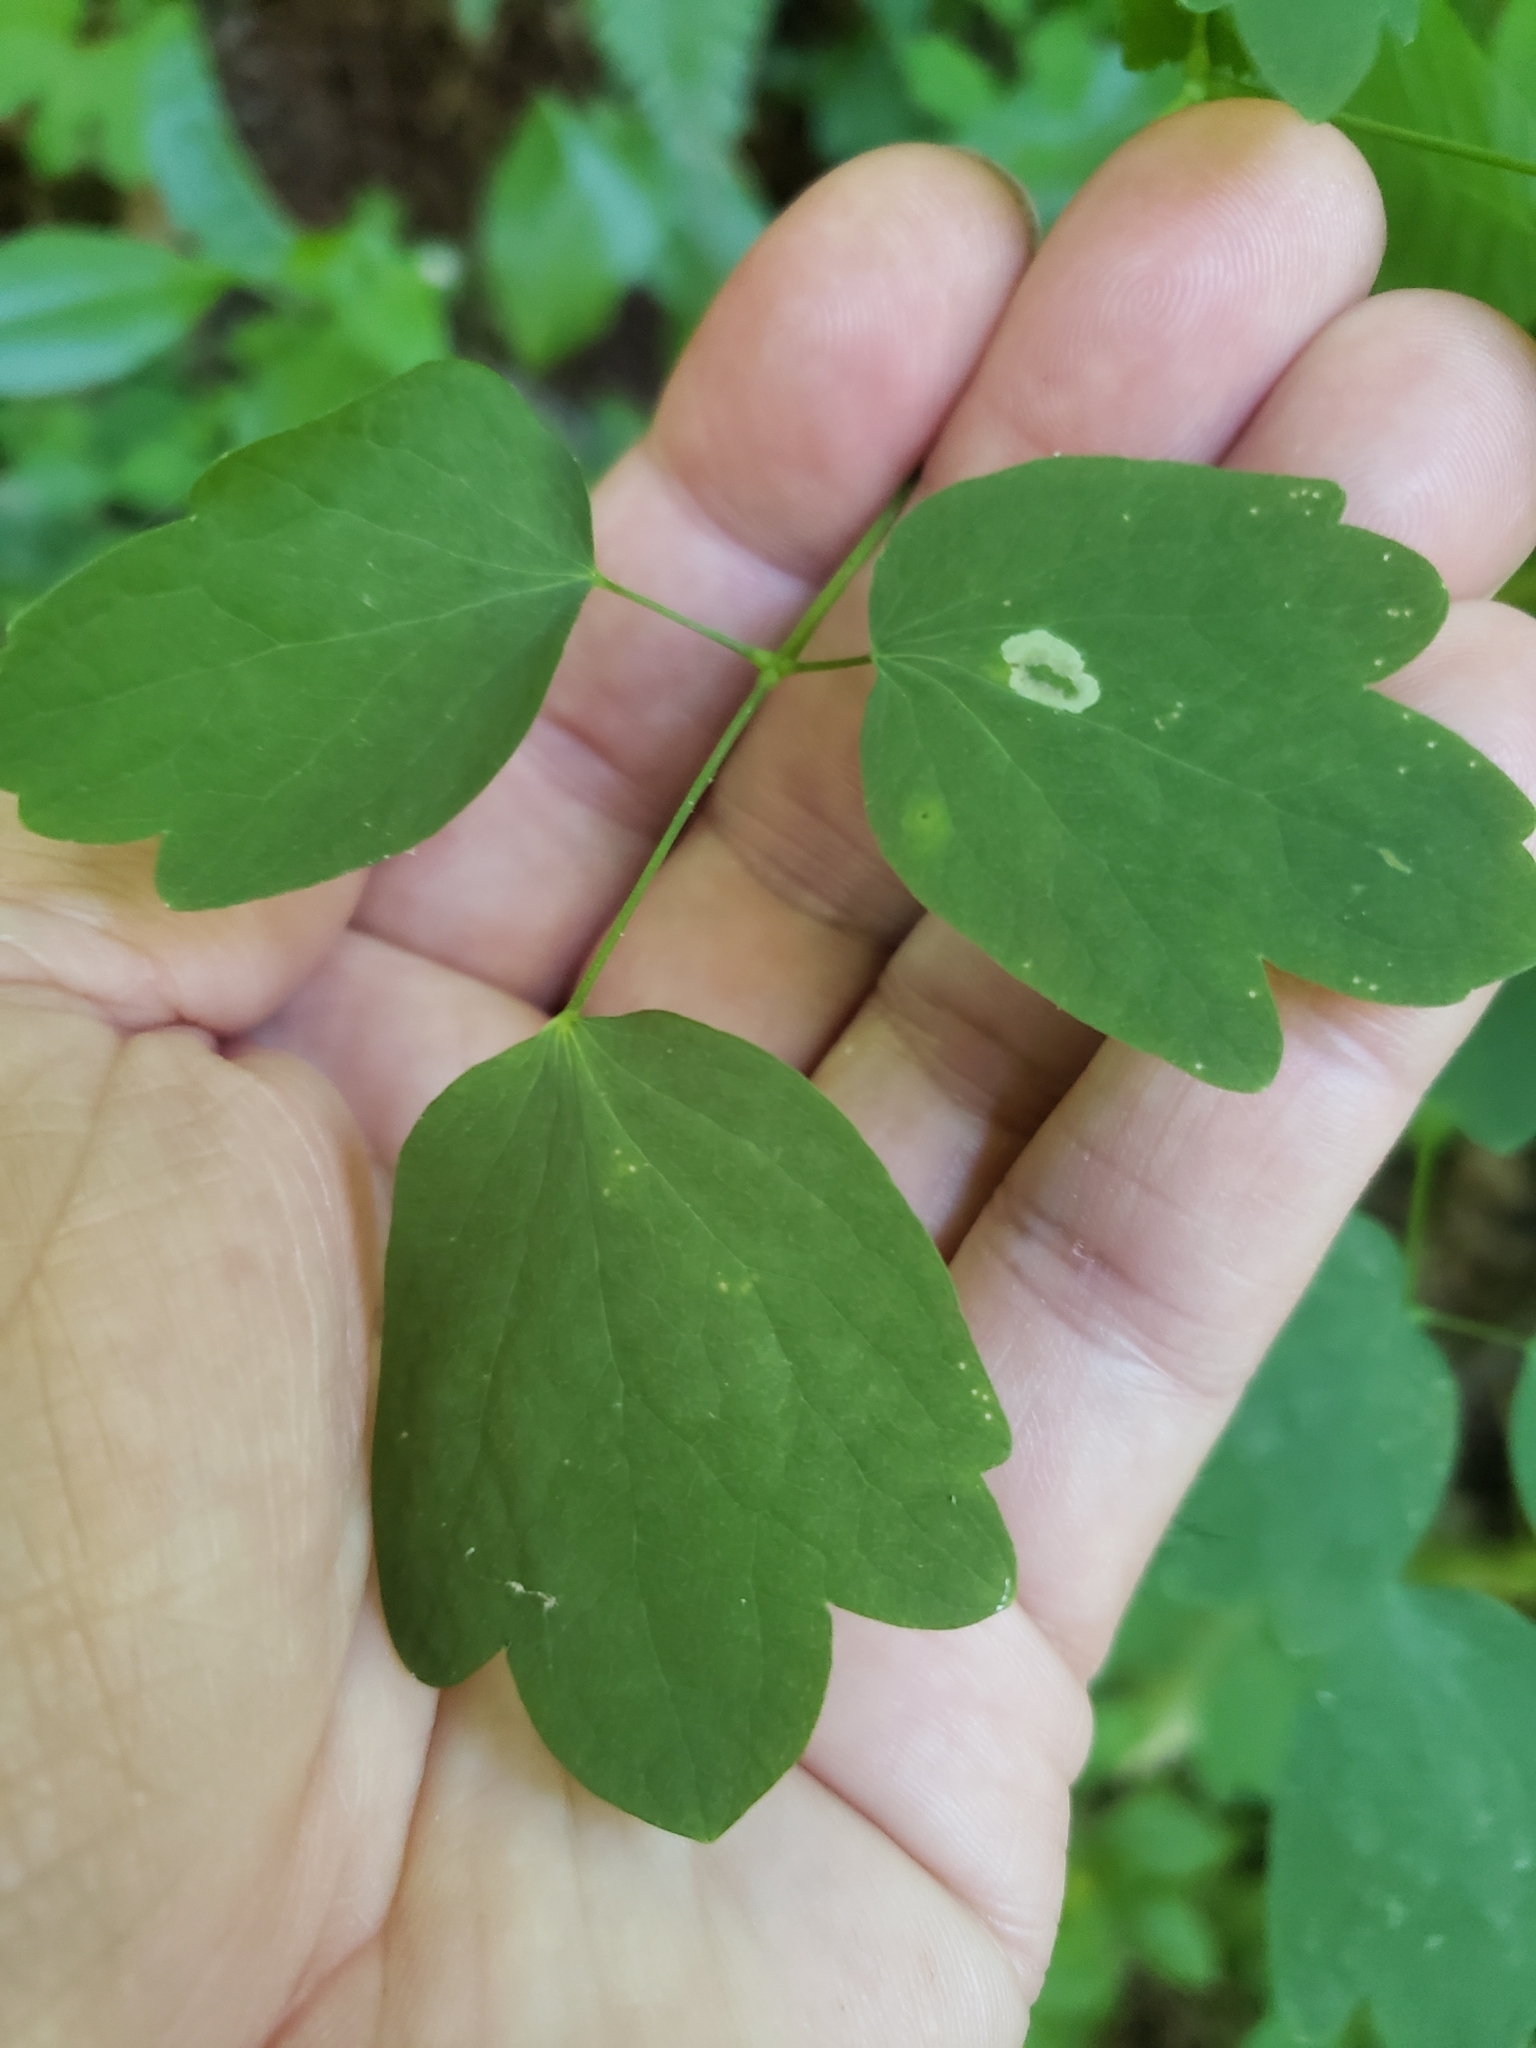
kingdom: Animalia
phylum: Arthropoda
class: Insecta
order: Diptera
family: Agromyzidae
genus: Phytomyza
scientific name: Phytomyza plumiseta
